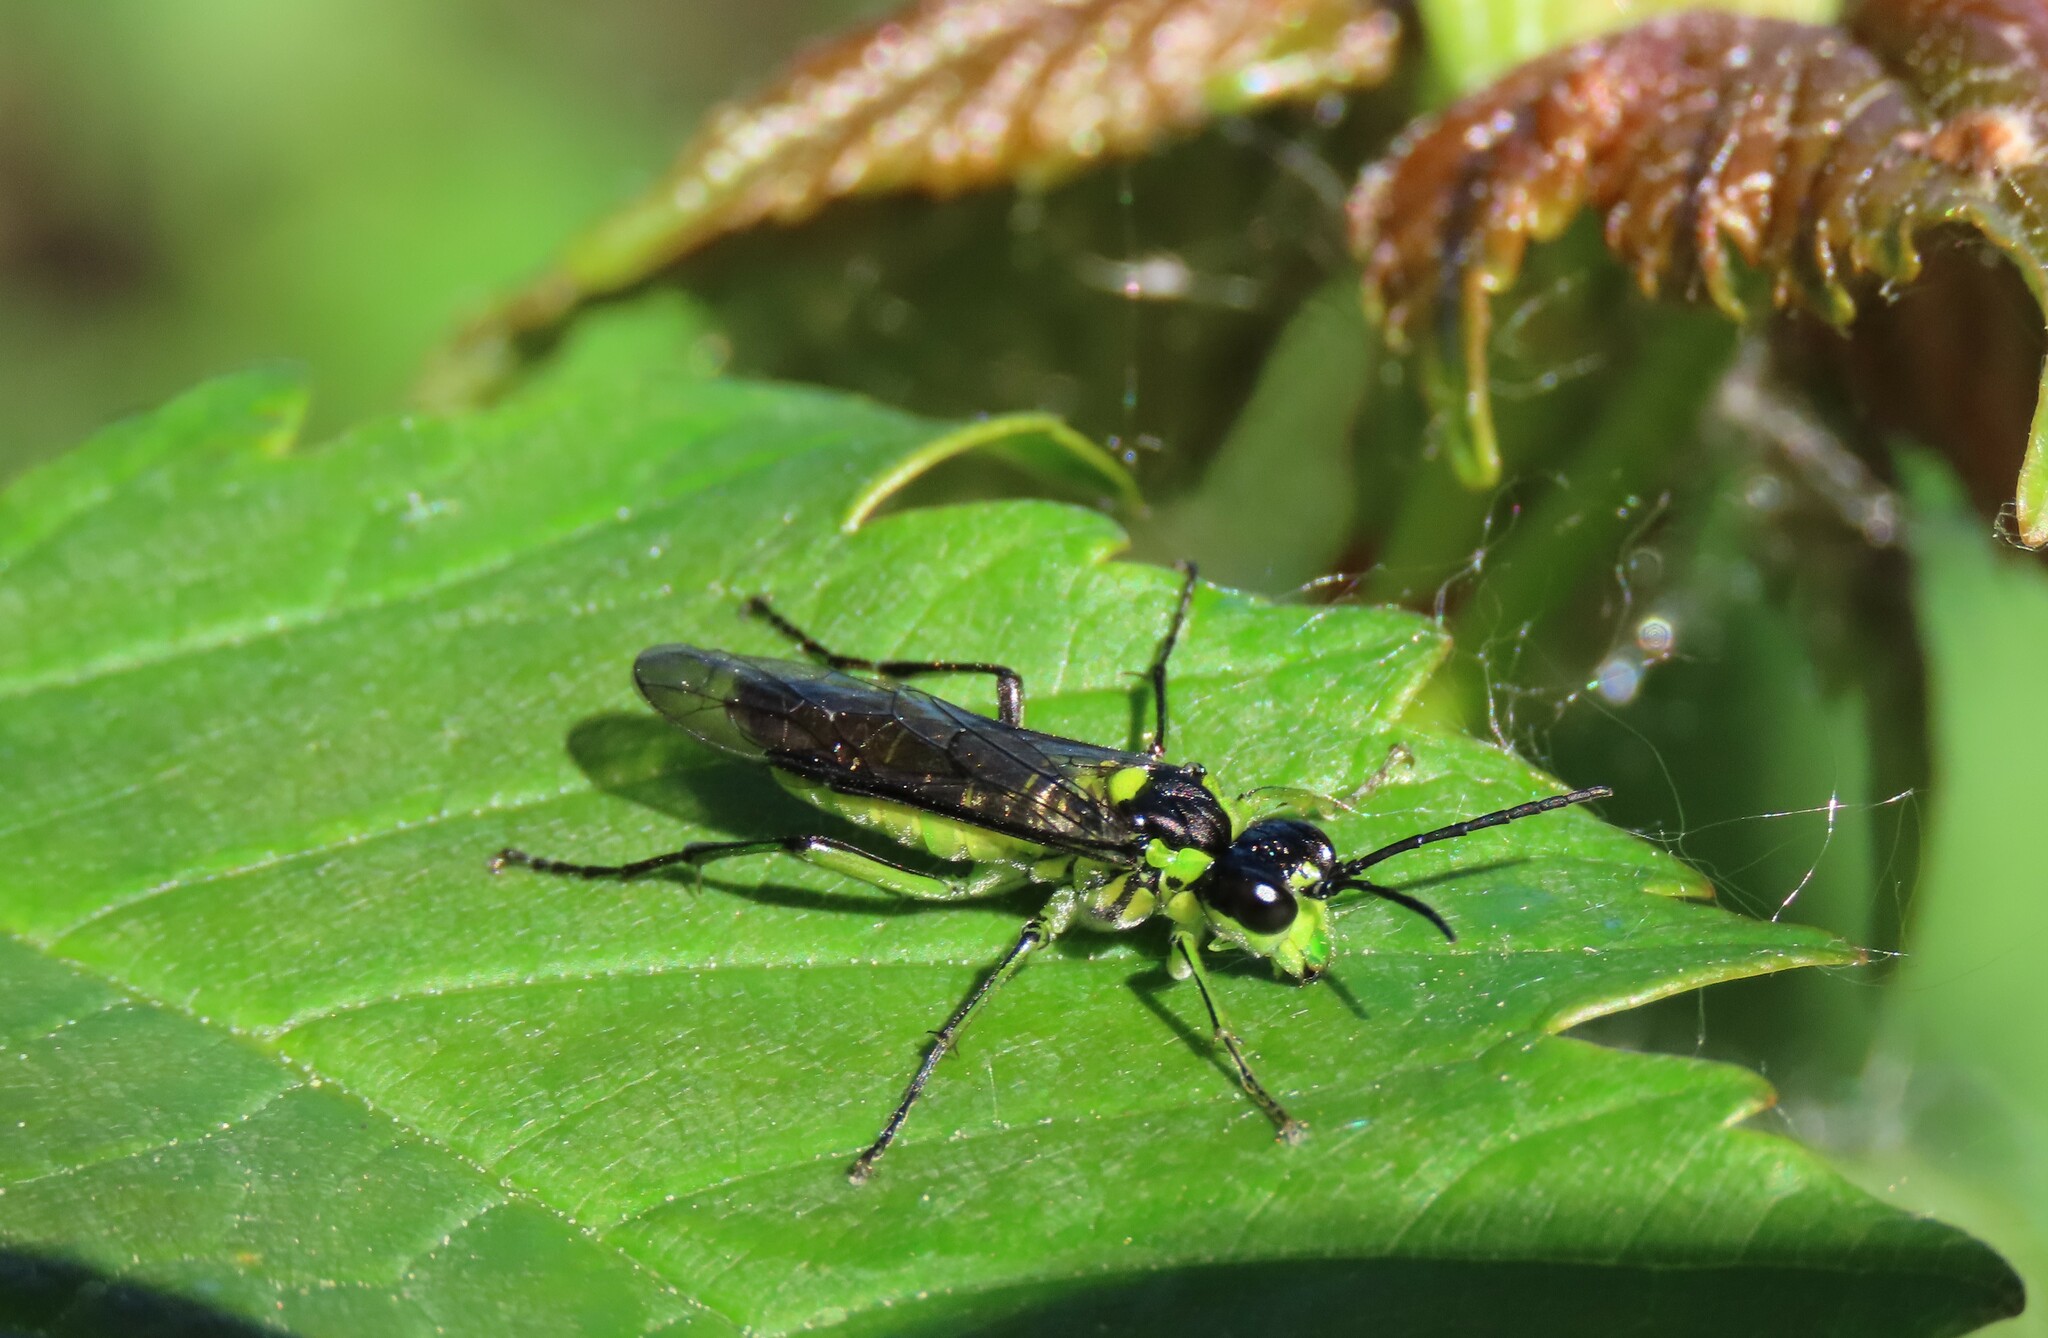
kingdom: Animalia
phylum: Arthropoda
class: Insecta
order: Hymenoptera
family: Tenthredinidae
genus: Tenthredo
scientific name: Tenthredo mesomela
